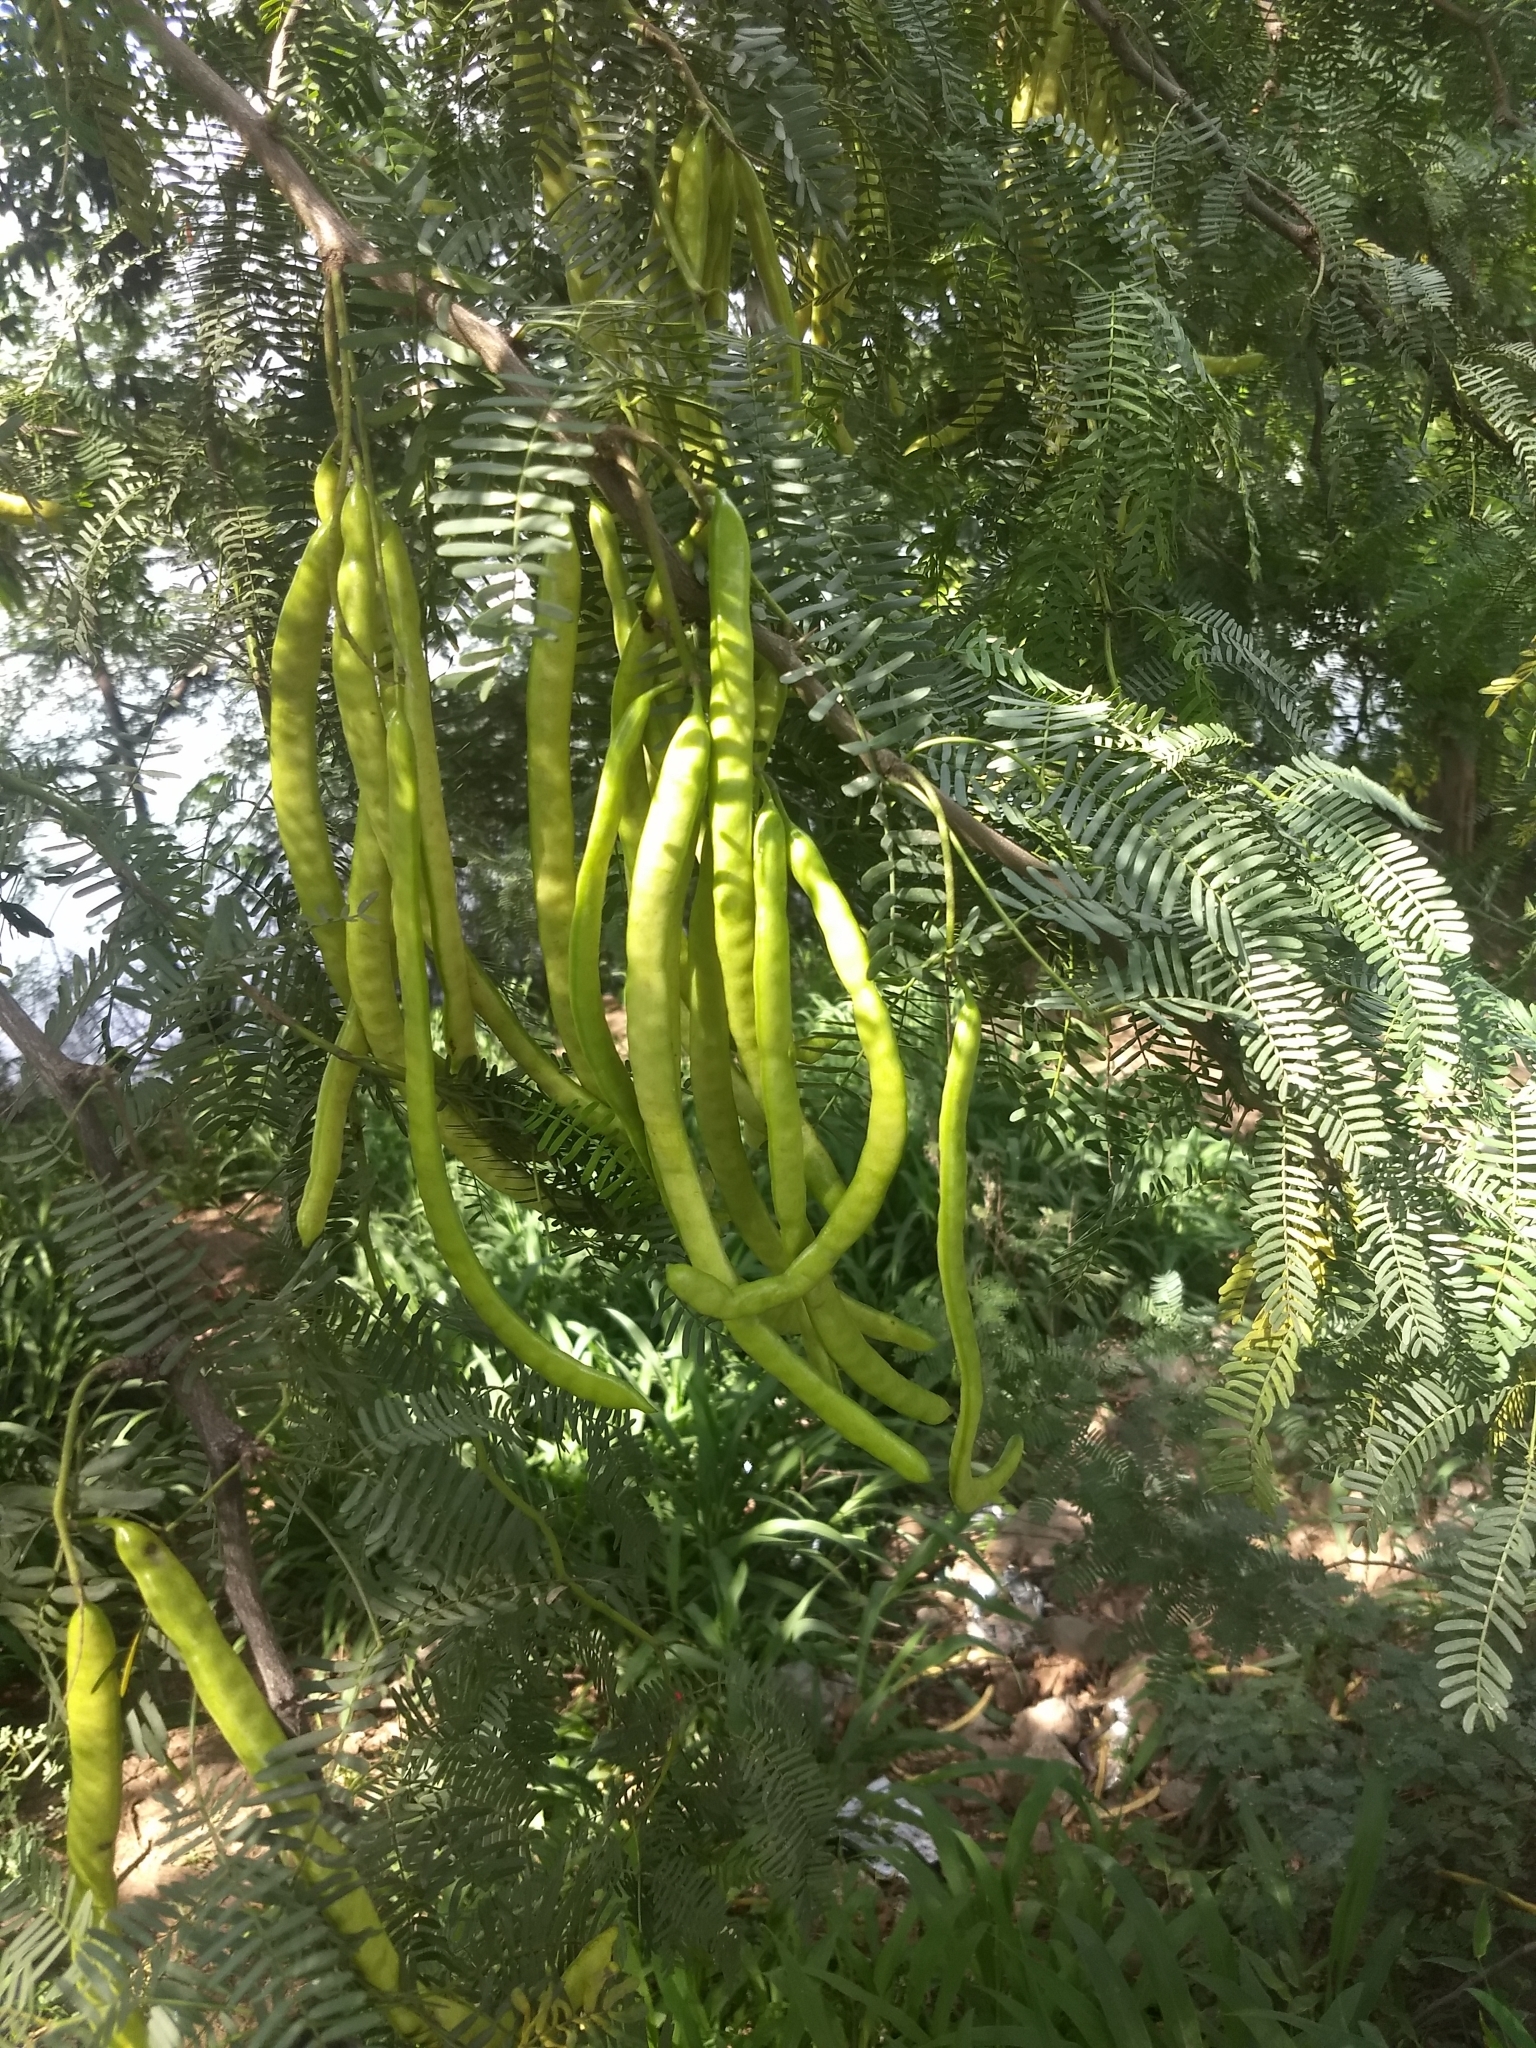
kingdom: Plantae
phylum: Tracheophyta
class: Magnoliopsida
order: Fabales
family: Fabaceae
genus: Prosopis
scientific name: Prosopis juliflora
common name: Mesquite
